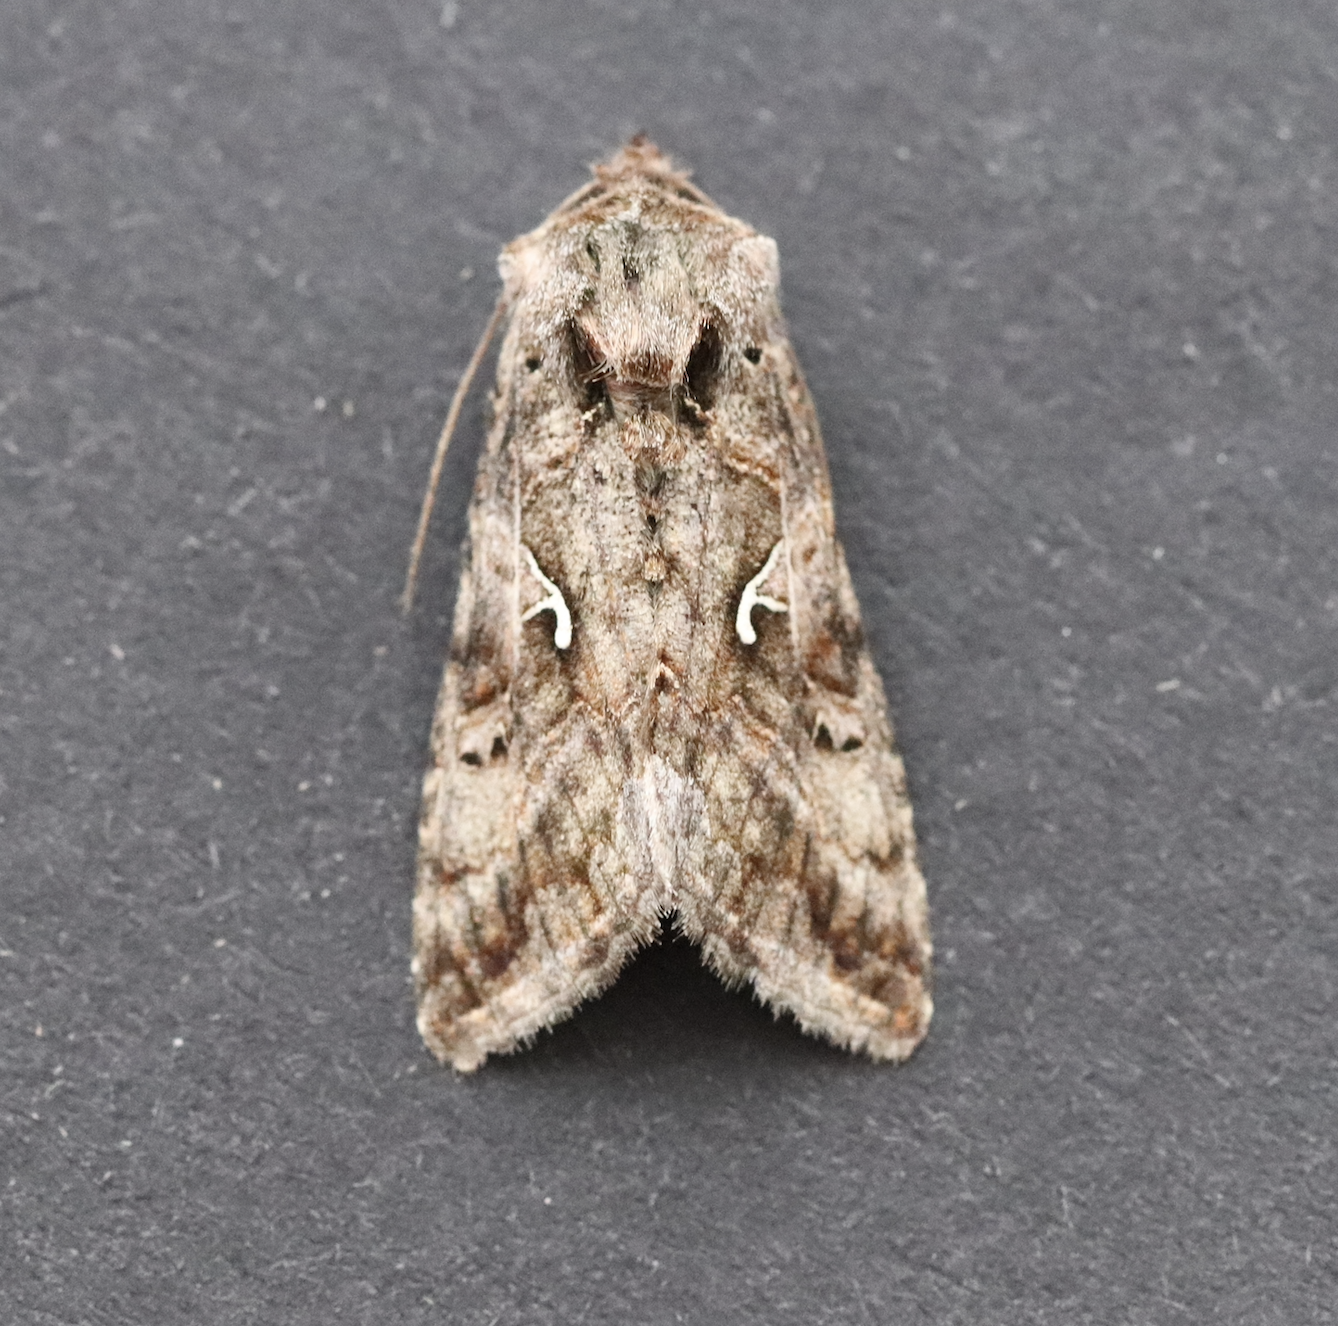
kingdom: Animalia
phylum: Arthropoda
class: Insecta
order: Lepidoptera
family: Noctuidae
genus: Autographa
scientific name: Autographa gamma
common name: Silver y
